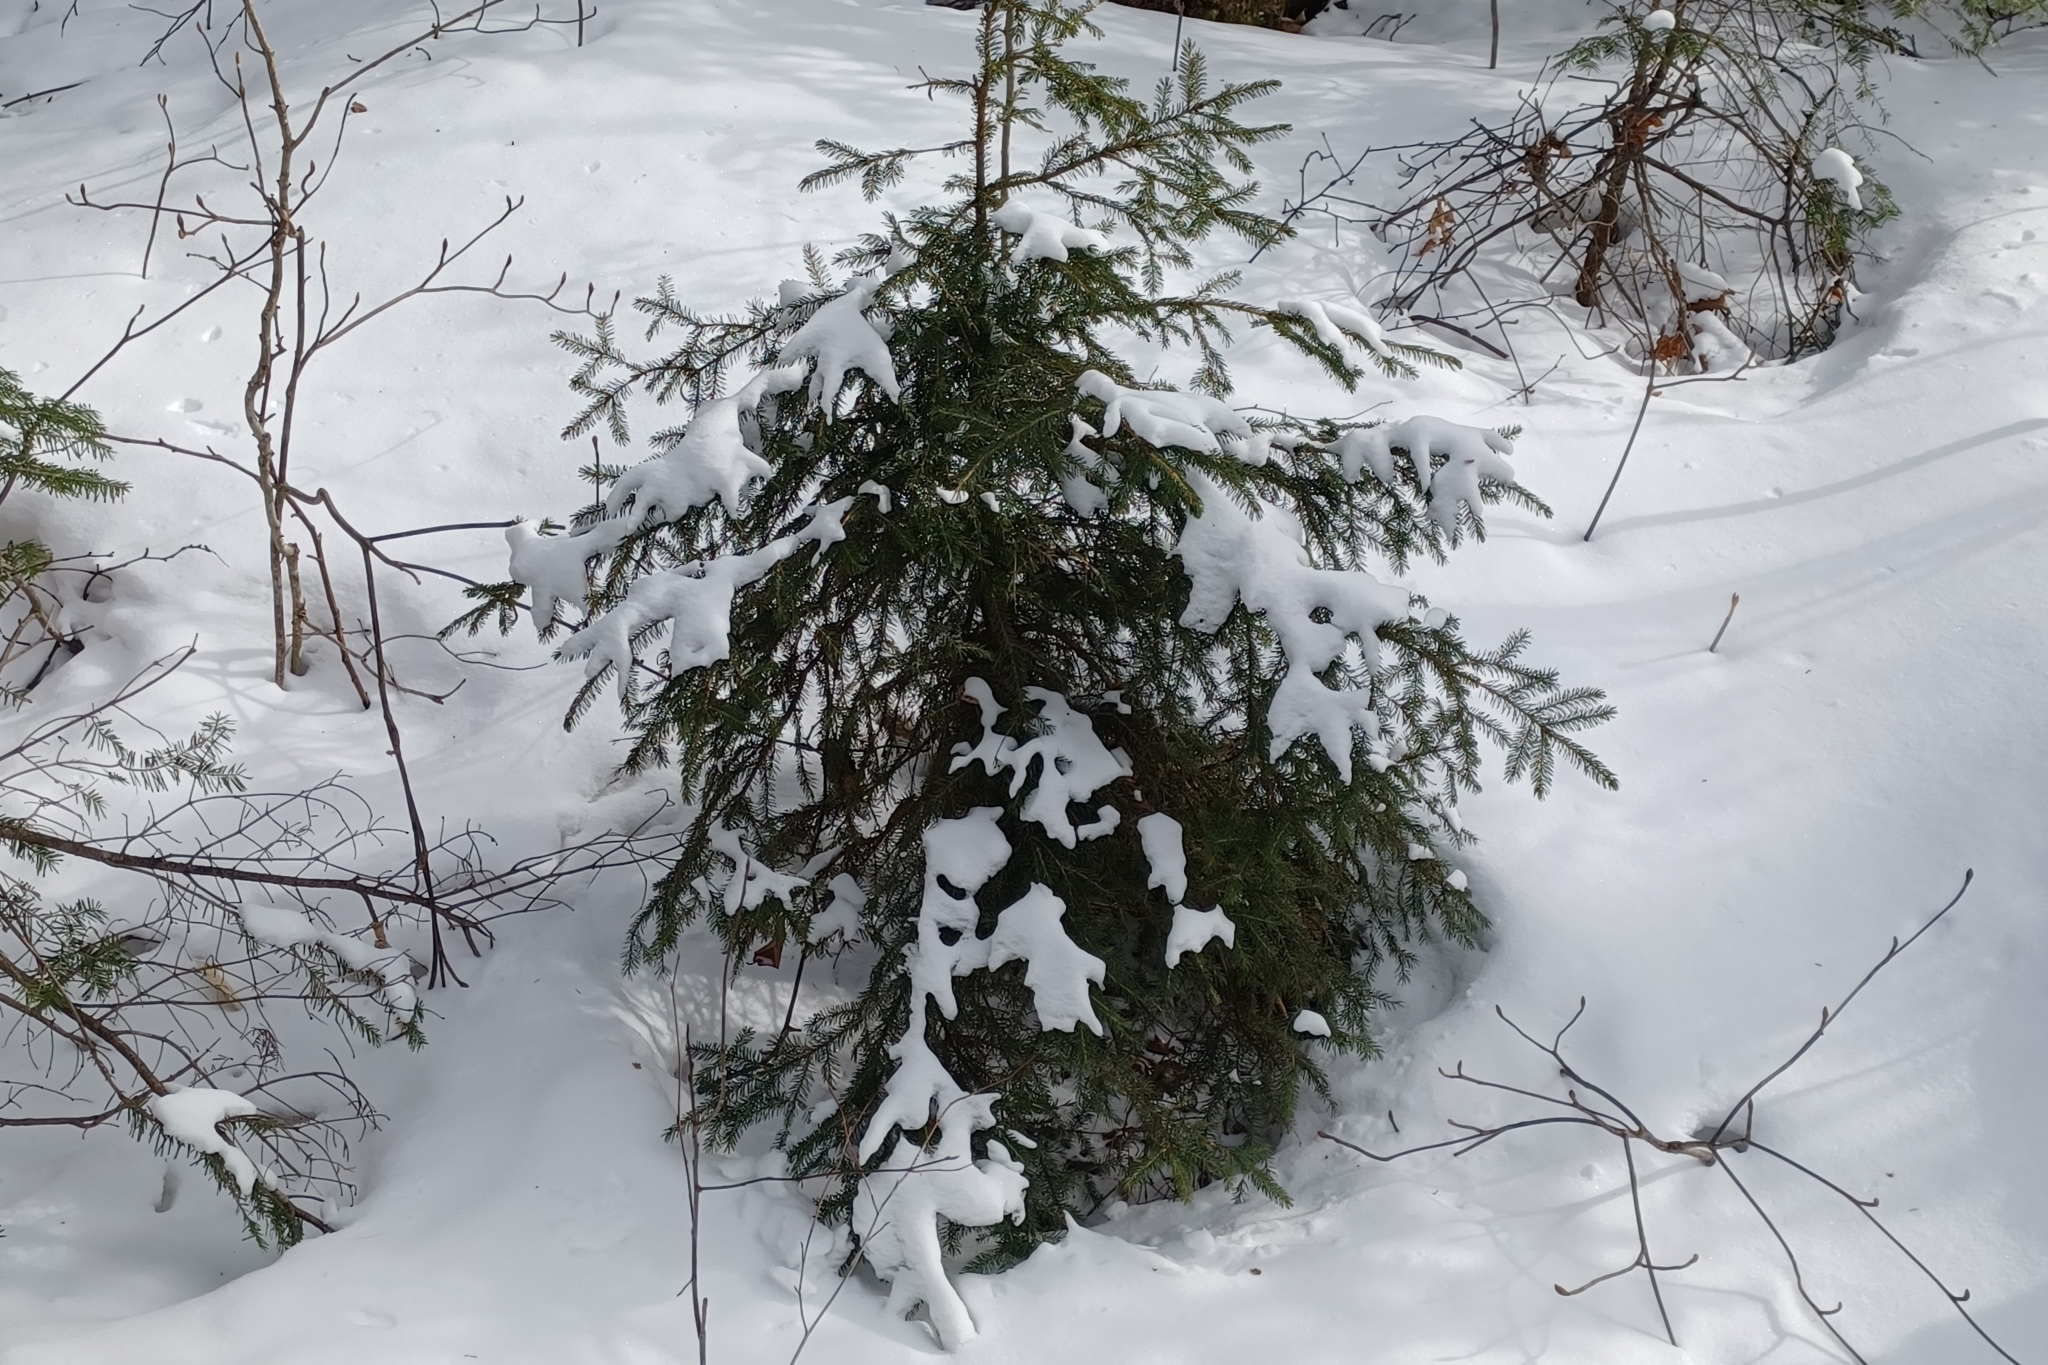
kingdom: Plantae
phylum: Tracheophyta
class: Pinopsida
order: Pinales
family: Pinaceae
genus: Picea
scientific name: Picea rubens
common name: Red spruce
